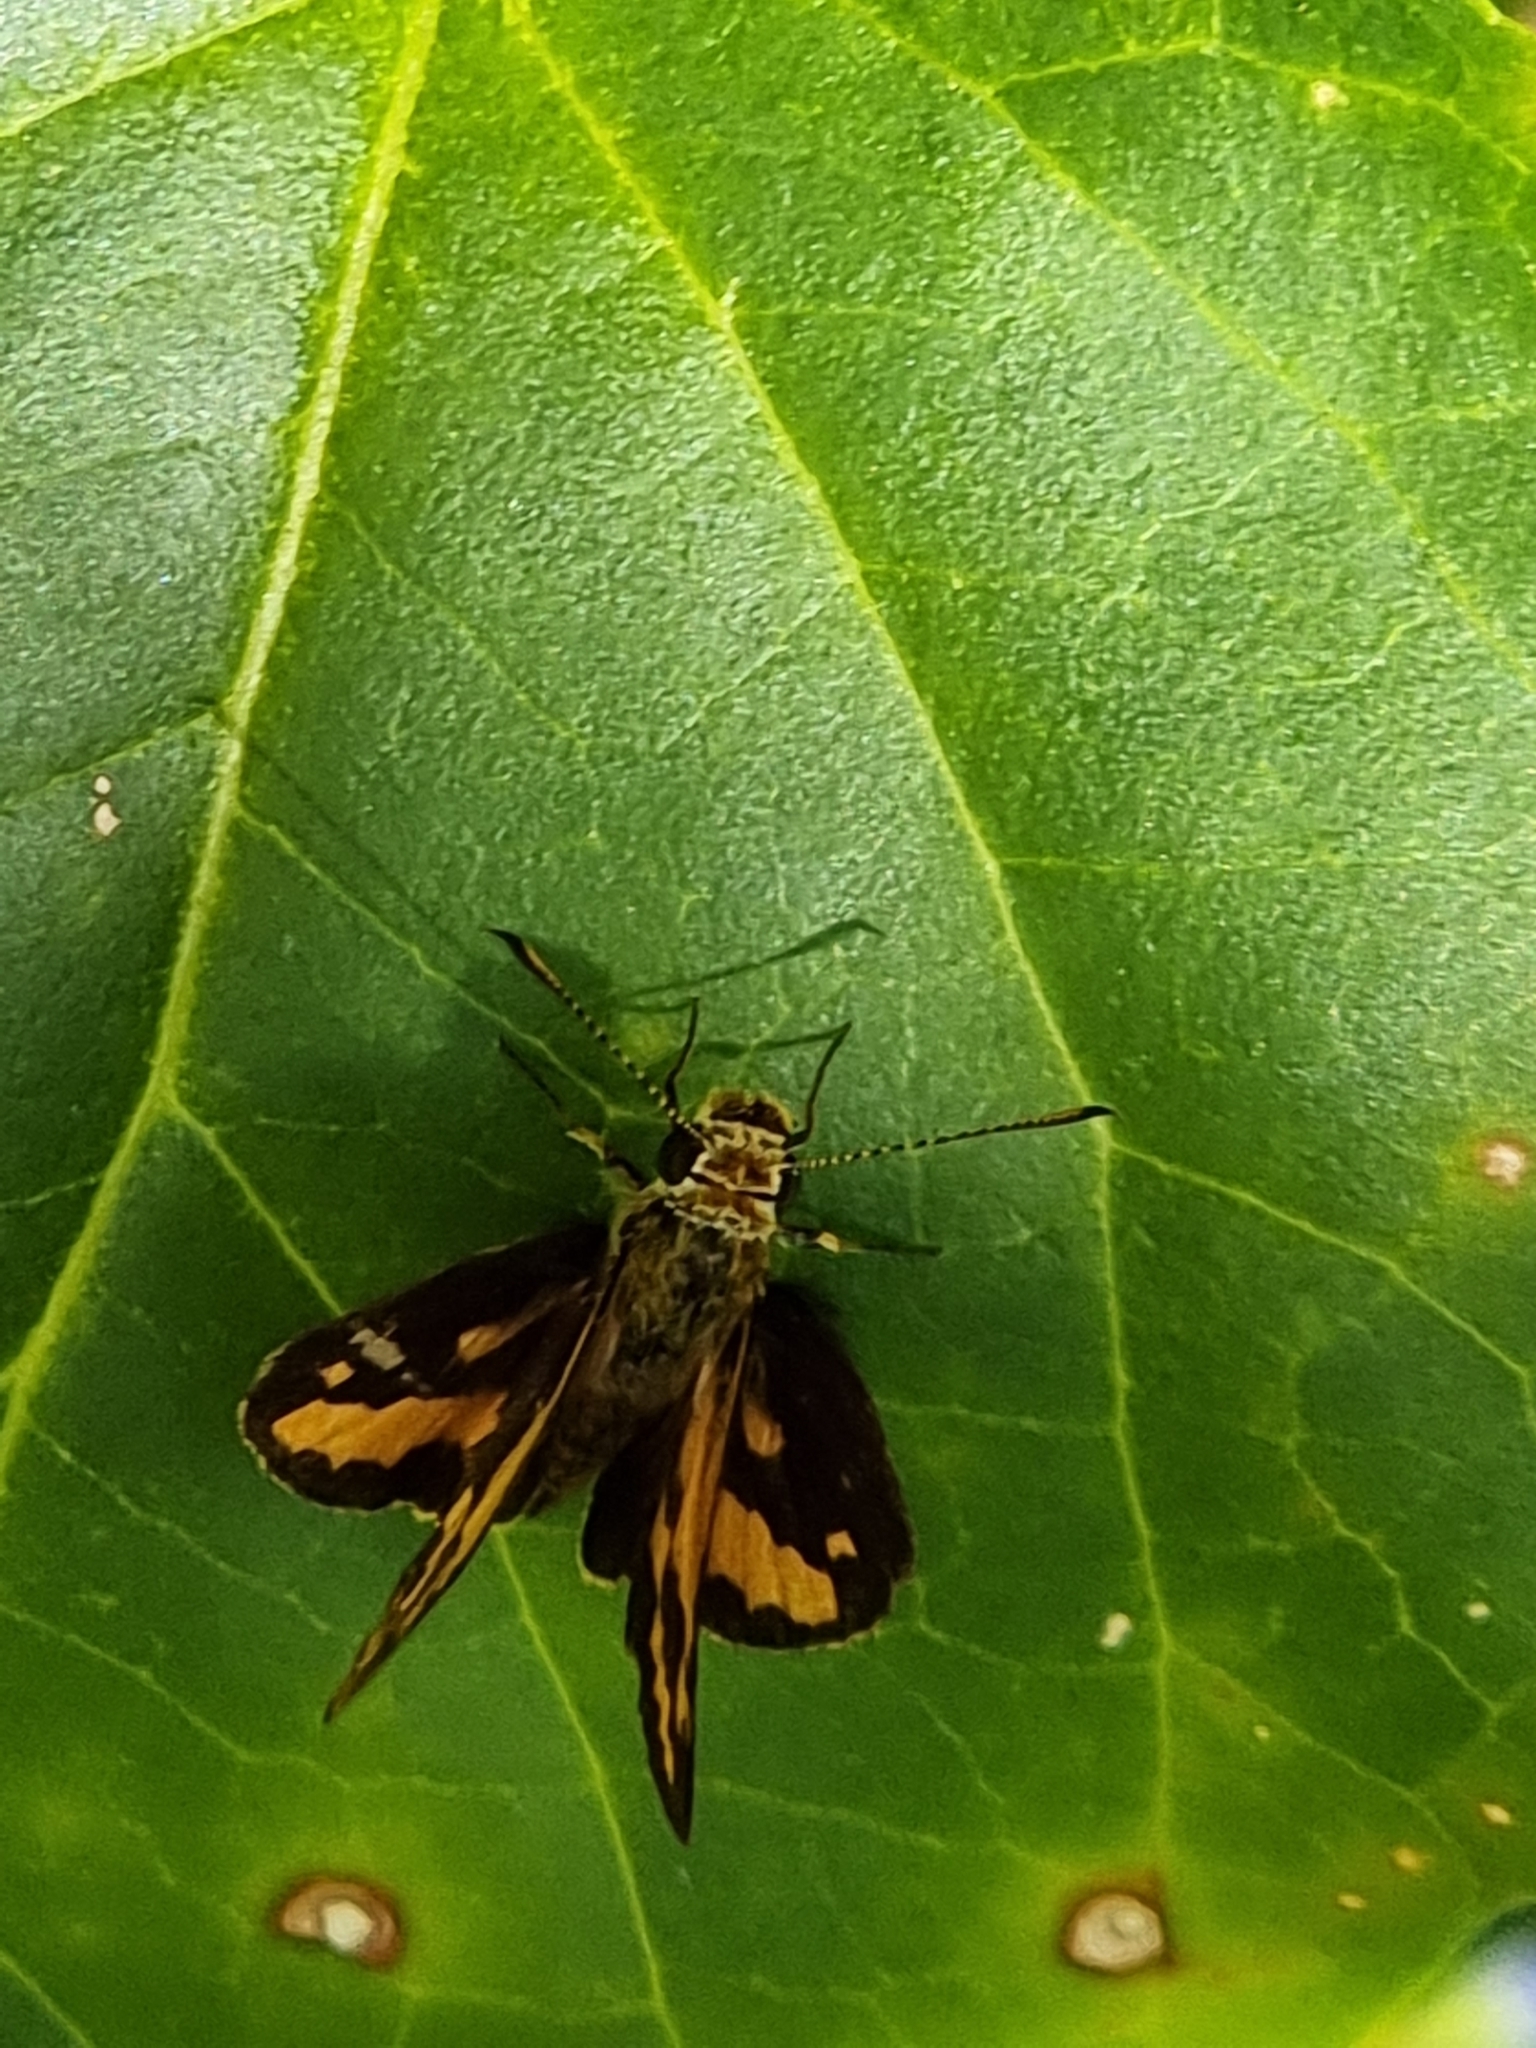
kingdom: Animalia
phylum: Arthropoda
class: Insecta
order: Lepidoptera
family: Hesperiidae
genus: Suniana
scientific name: Suniana sunias
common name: Wide-brand grass-dart
